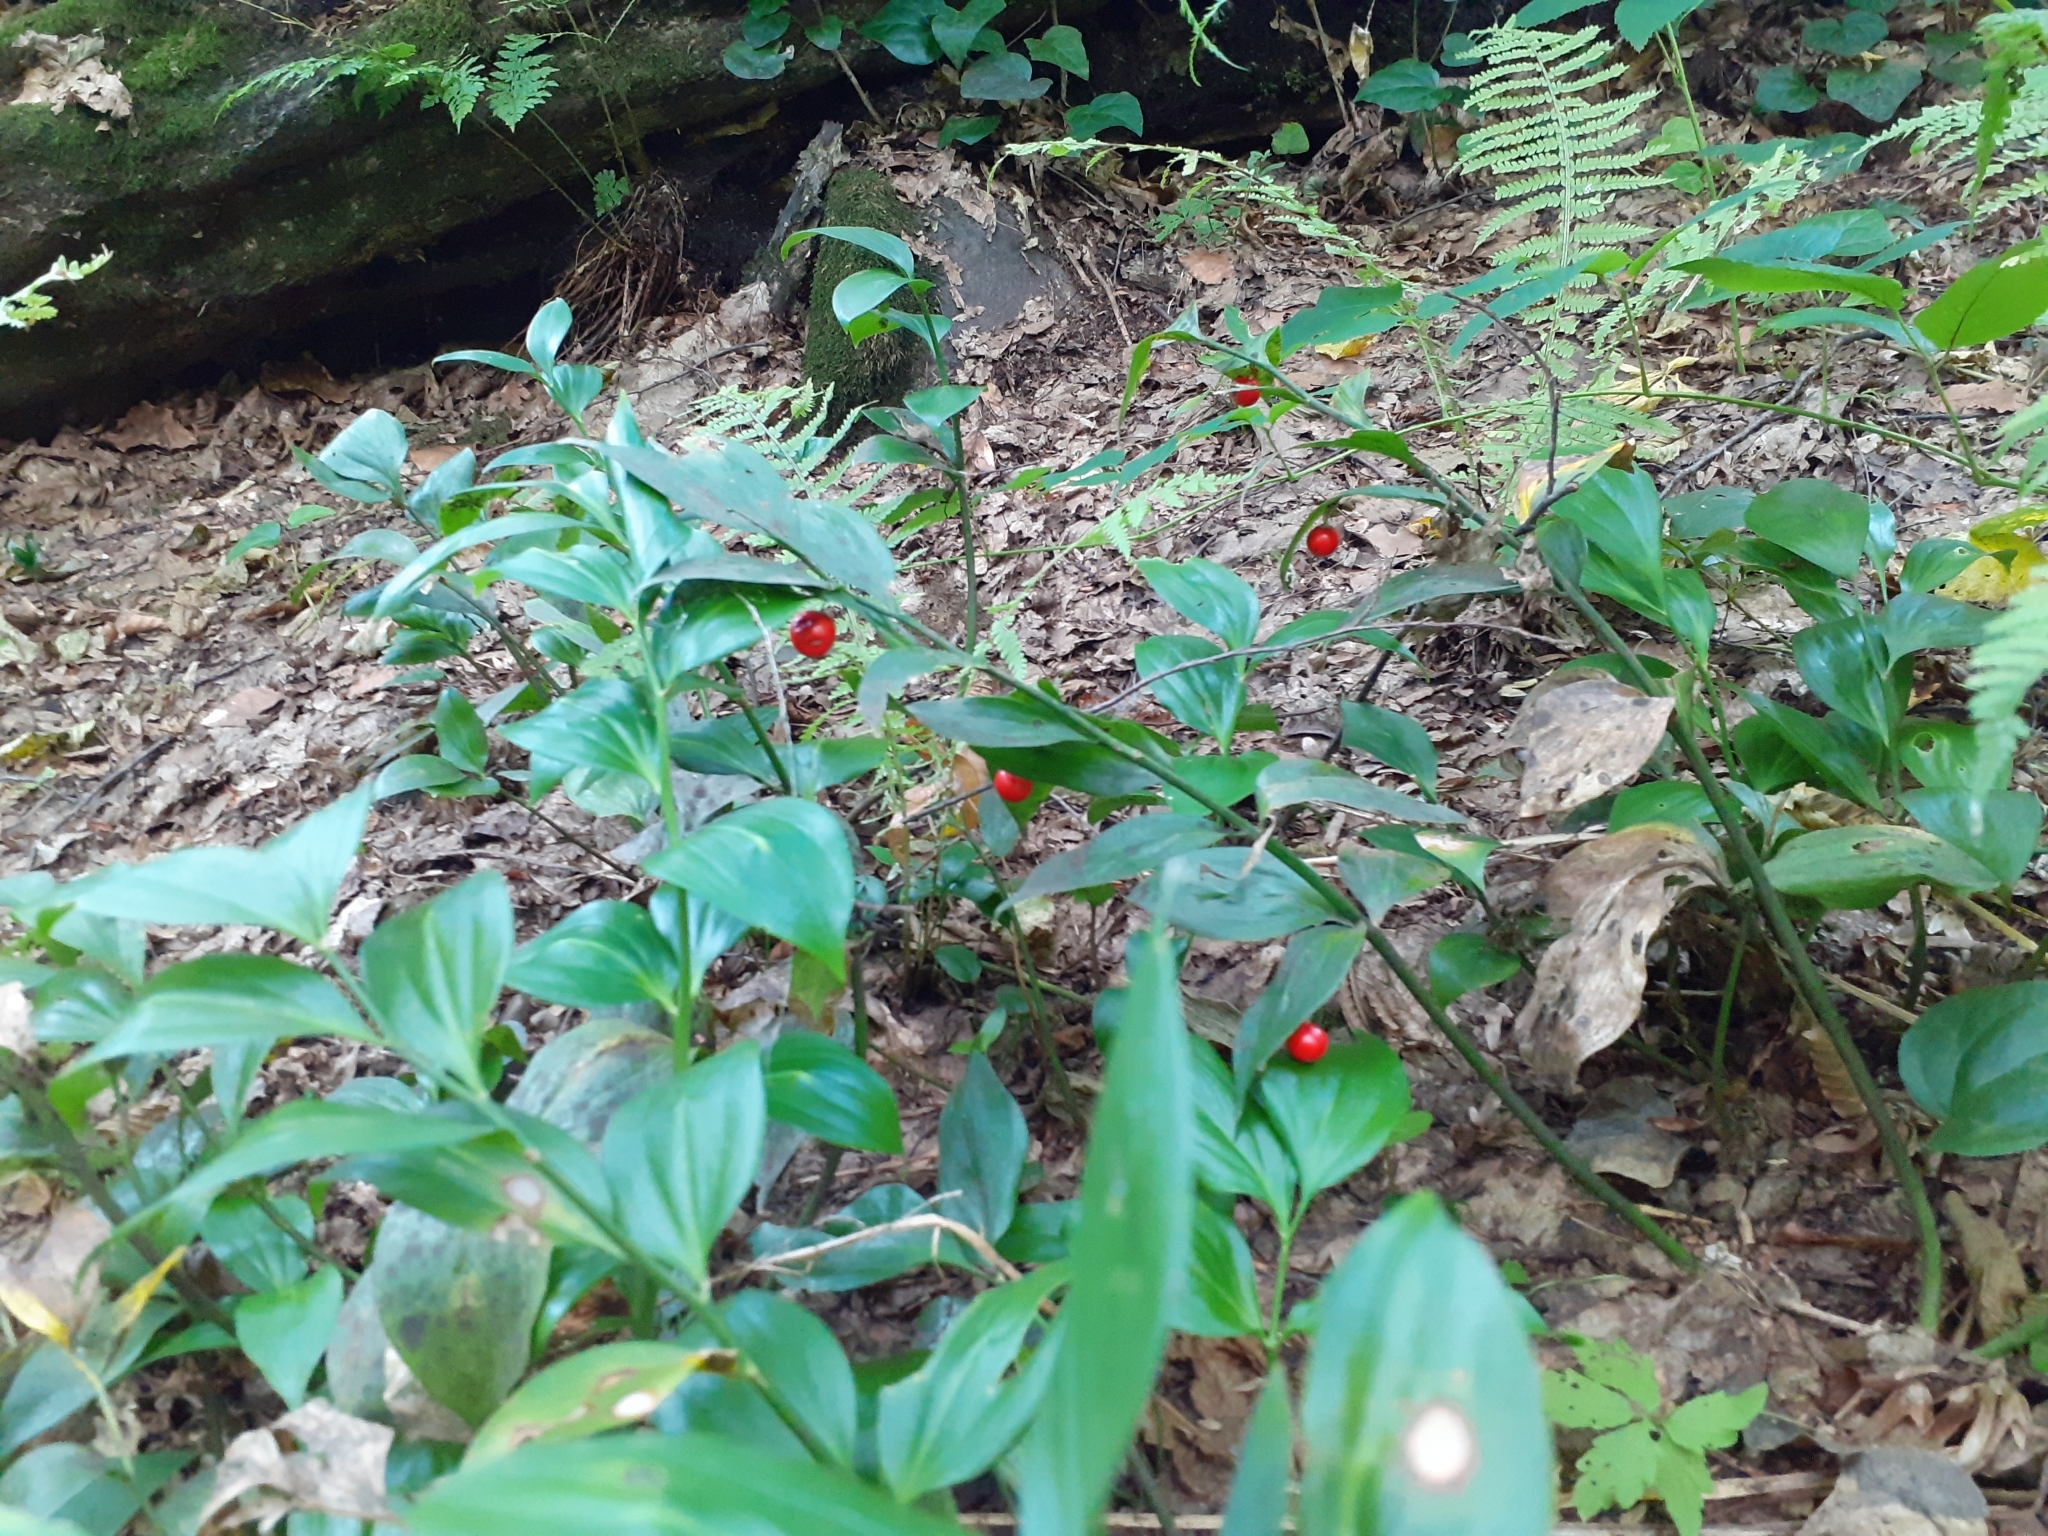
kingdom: Plantae
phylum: Tracheophyta
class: Liliopsida
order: Asparagales
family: Asparagaceae
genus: Ruscus
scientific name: Ruscus colchicus
